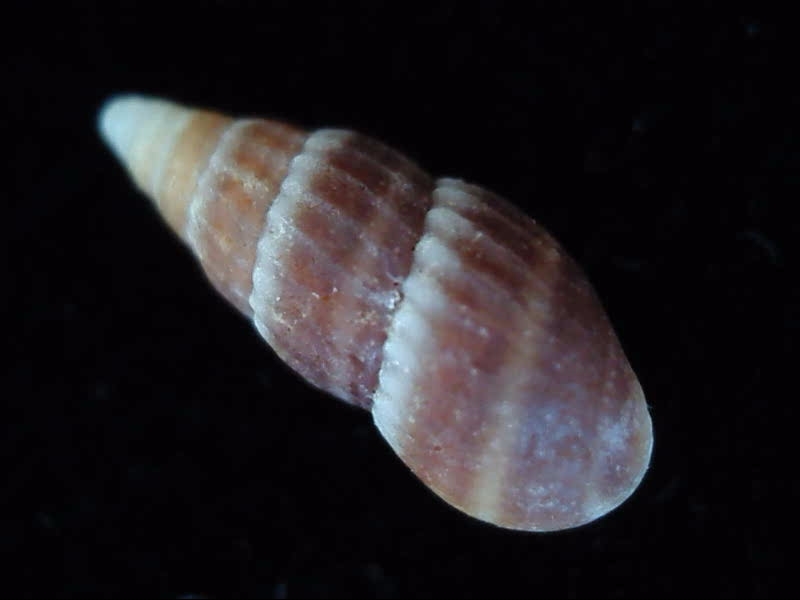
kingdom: Animalia
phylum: Mollusca
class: Gastropoda
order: Littorinimorpha
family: Rissoinidae
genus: Rissoina
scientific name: Rissoina chathamensis
